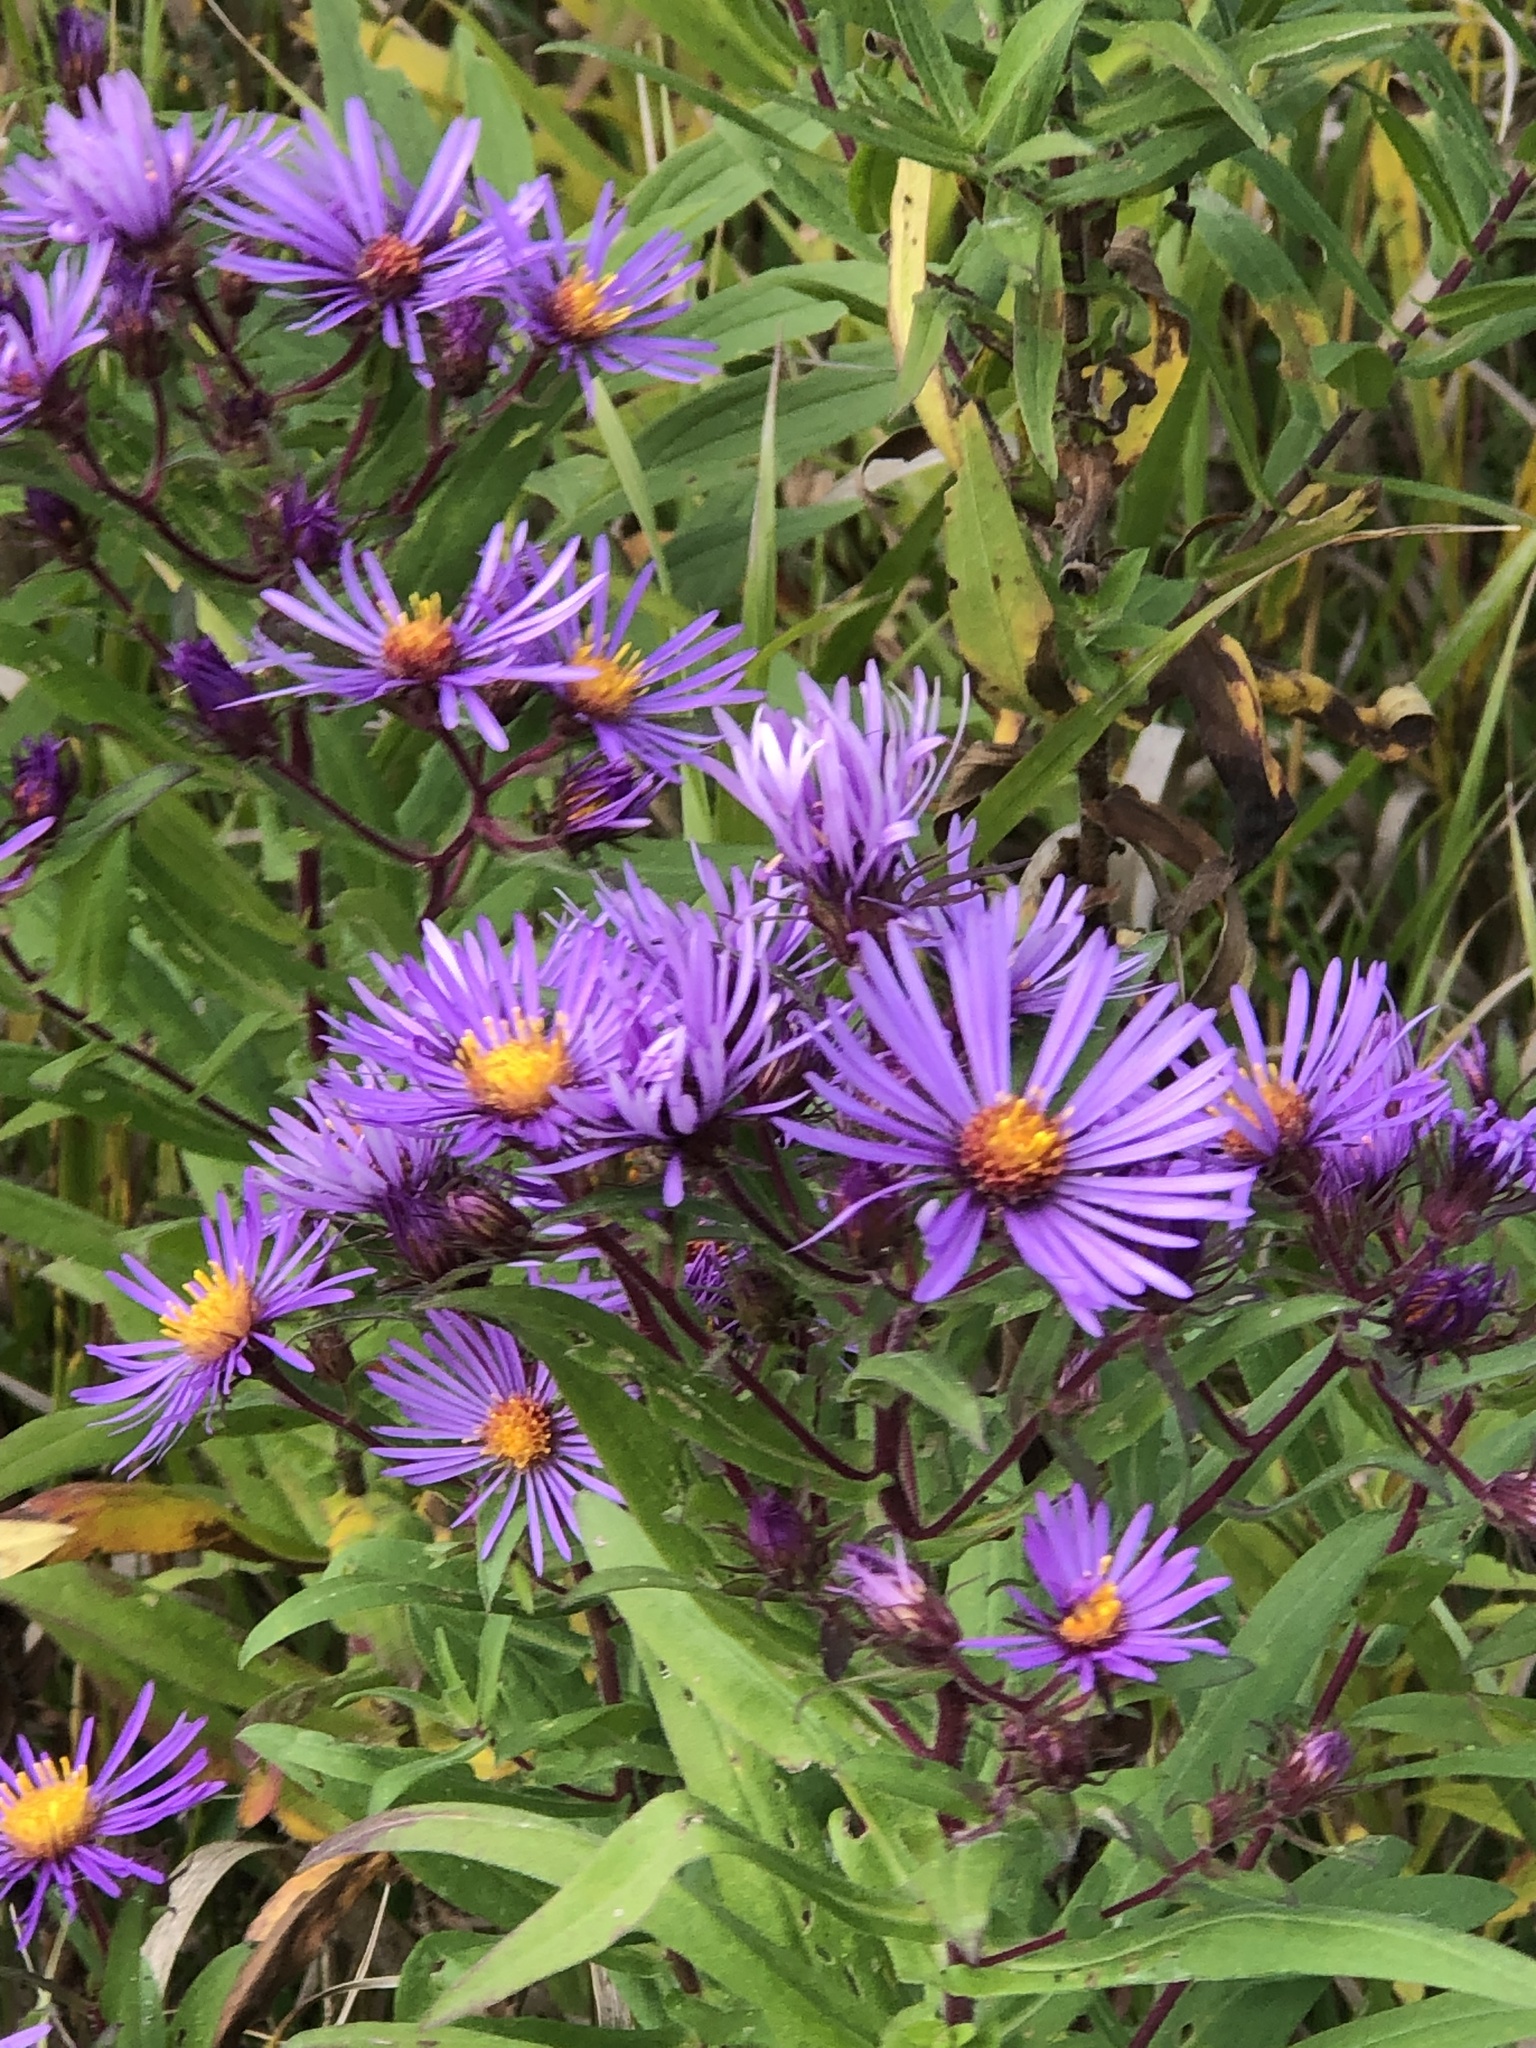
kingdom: Plantae
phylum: Tracheophyta
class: Magnoliopsida
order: Asterales
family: Asteraceae
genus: Symphyotrichum
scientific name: Symphyotrichum novae-angliae
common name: Michaelmas daisy
